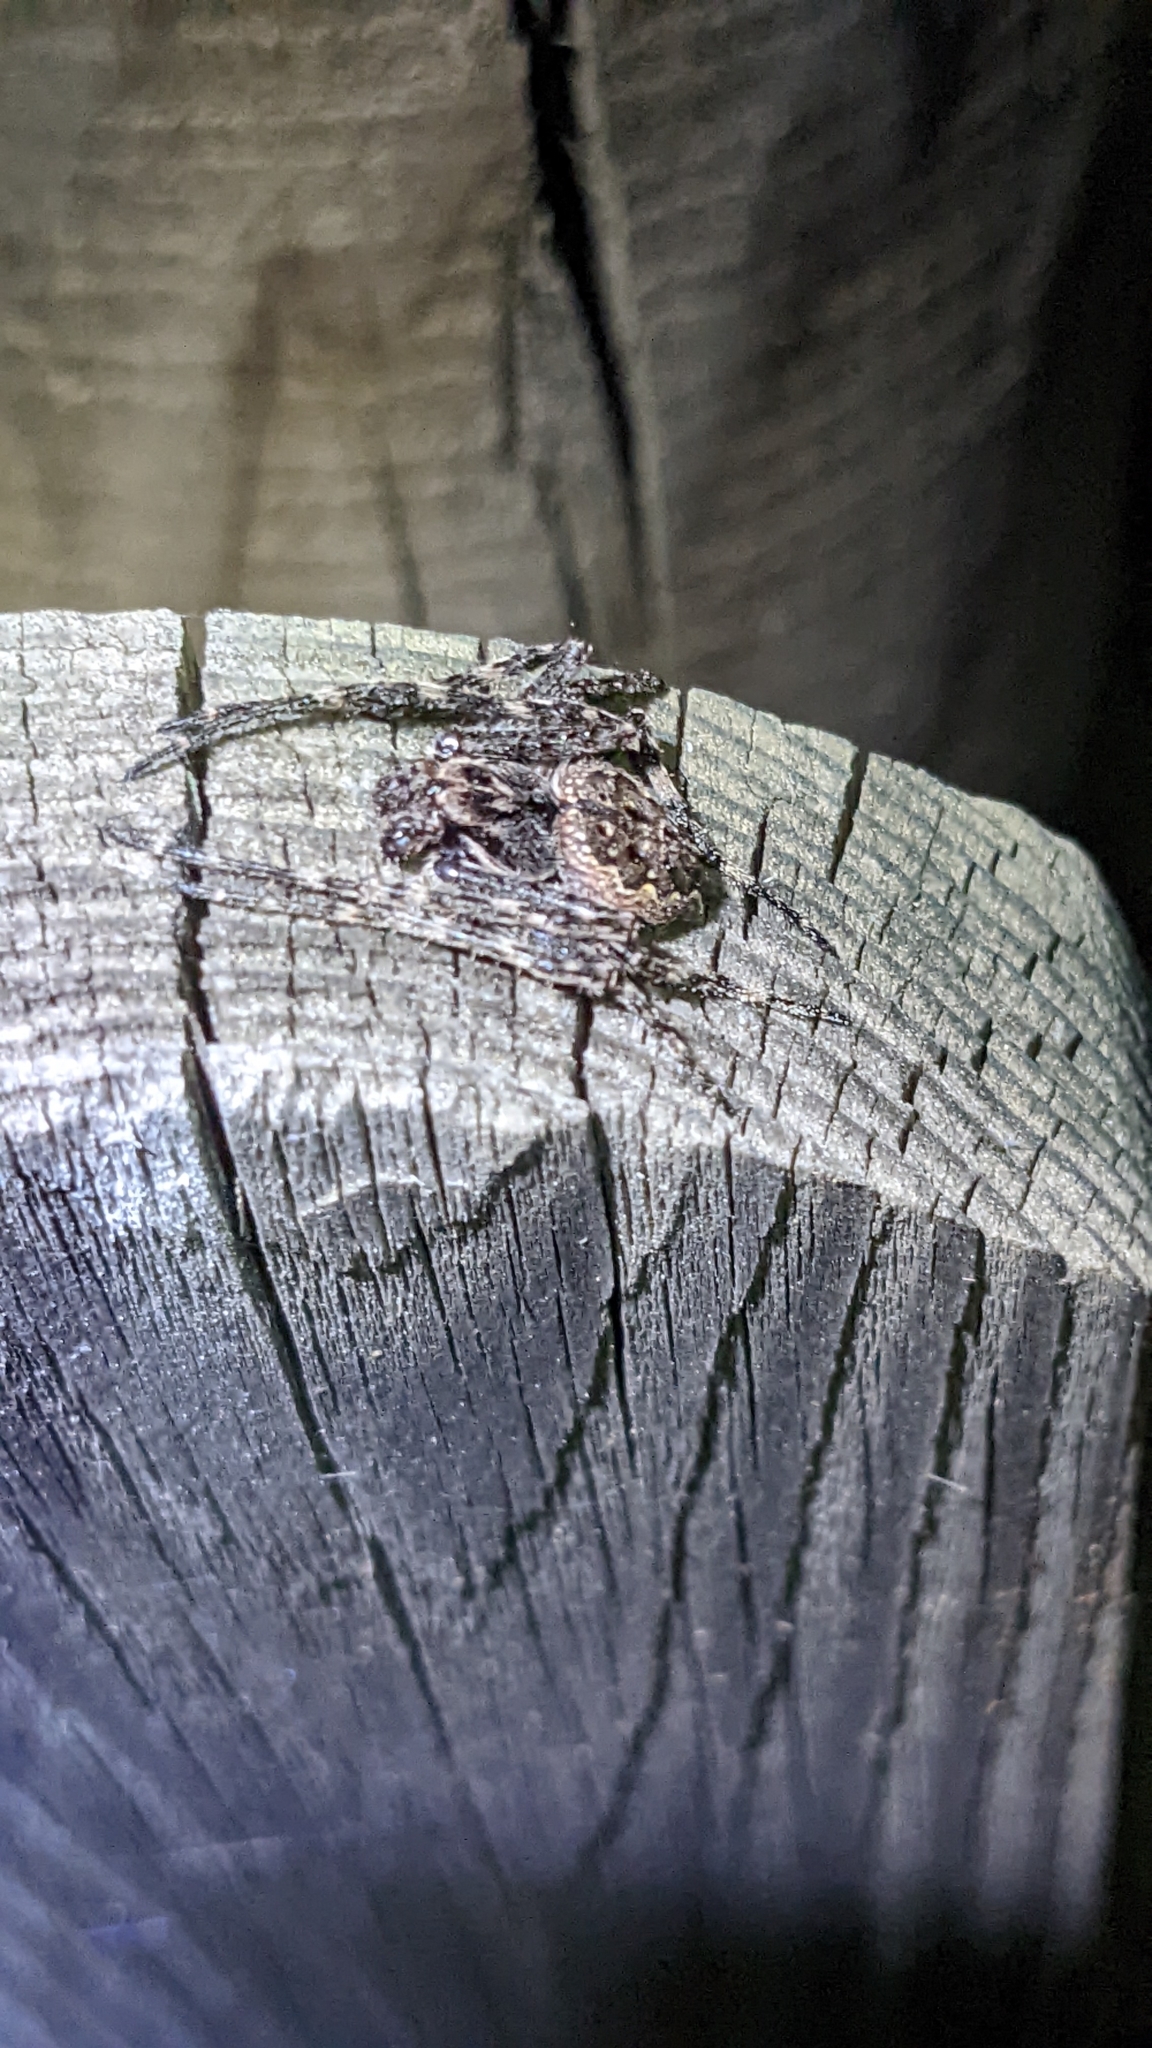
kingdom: Animalia
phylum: Arthropoda
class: Arachnida
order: Araneae
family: Araneidae
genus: Nuctenea
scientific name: Nuctenea umbratica
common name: Toad spider
